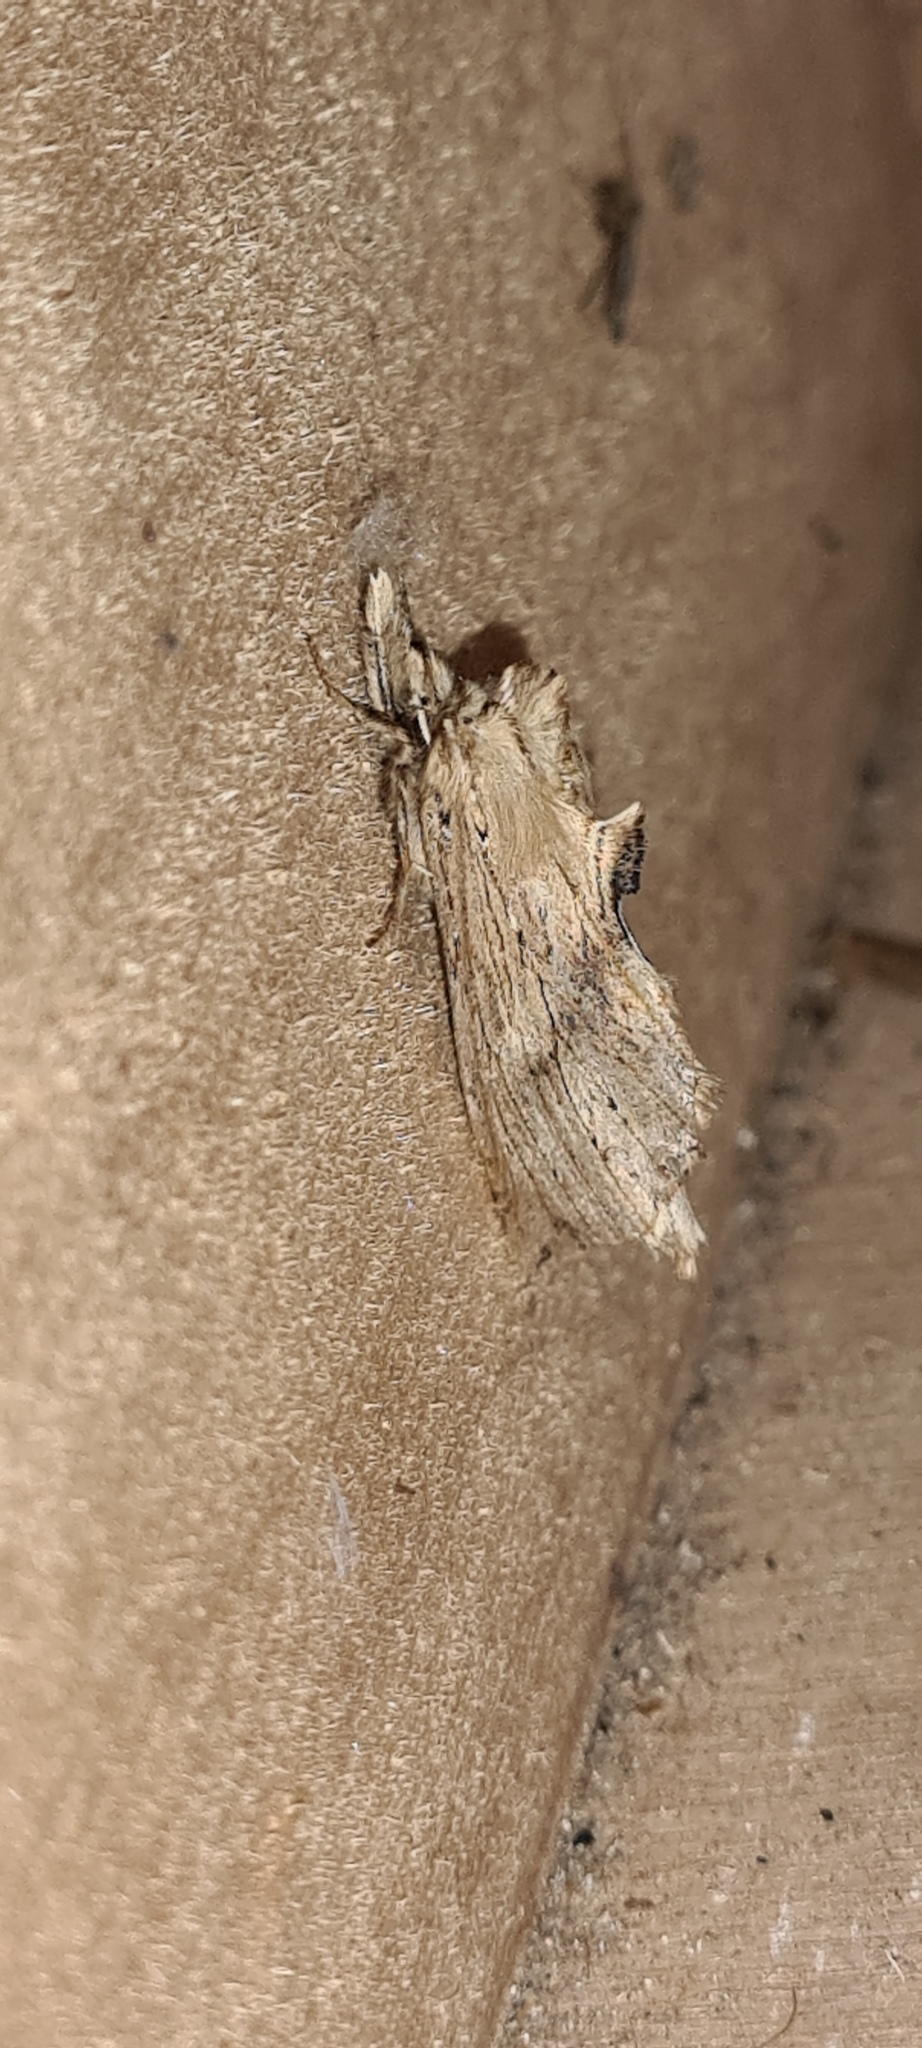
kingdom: Animalia
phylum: Arthropoda
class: Insecta
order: Lepidoptera
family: Notodontidae
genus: Pterostoma
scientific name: Pterostoma palpina
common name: Pale prominent
